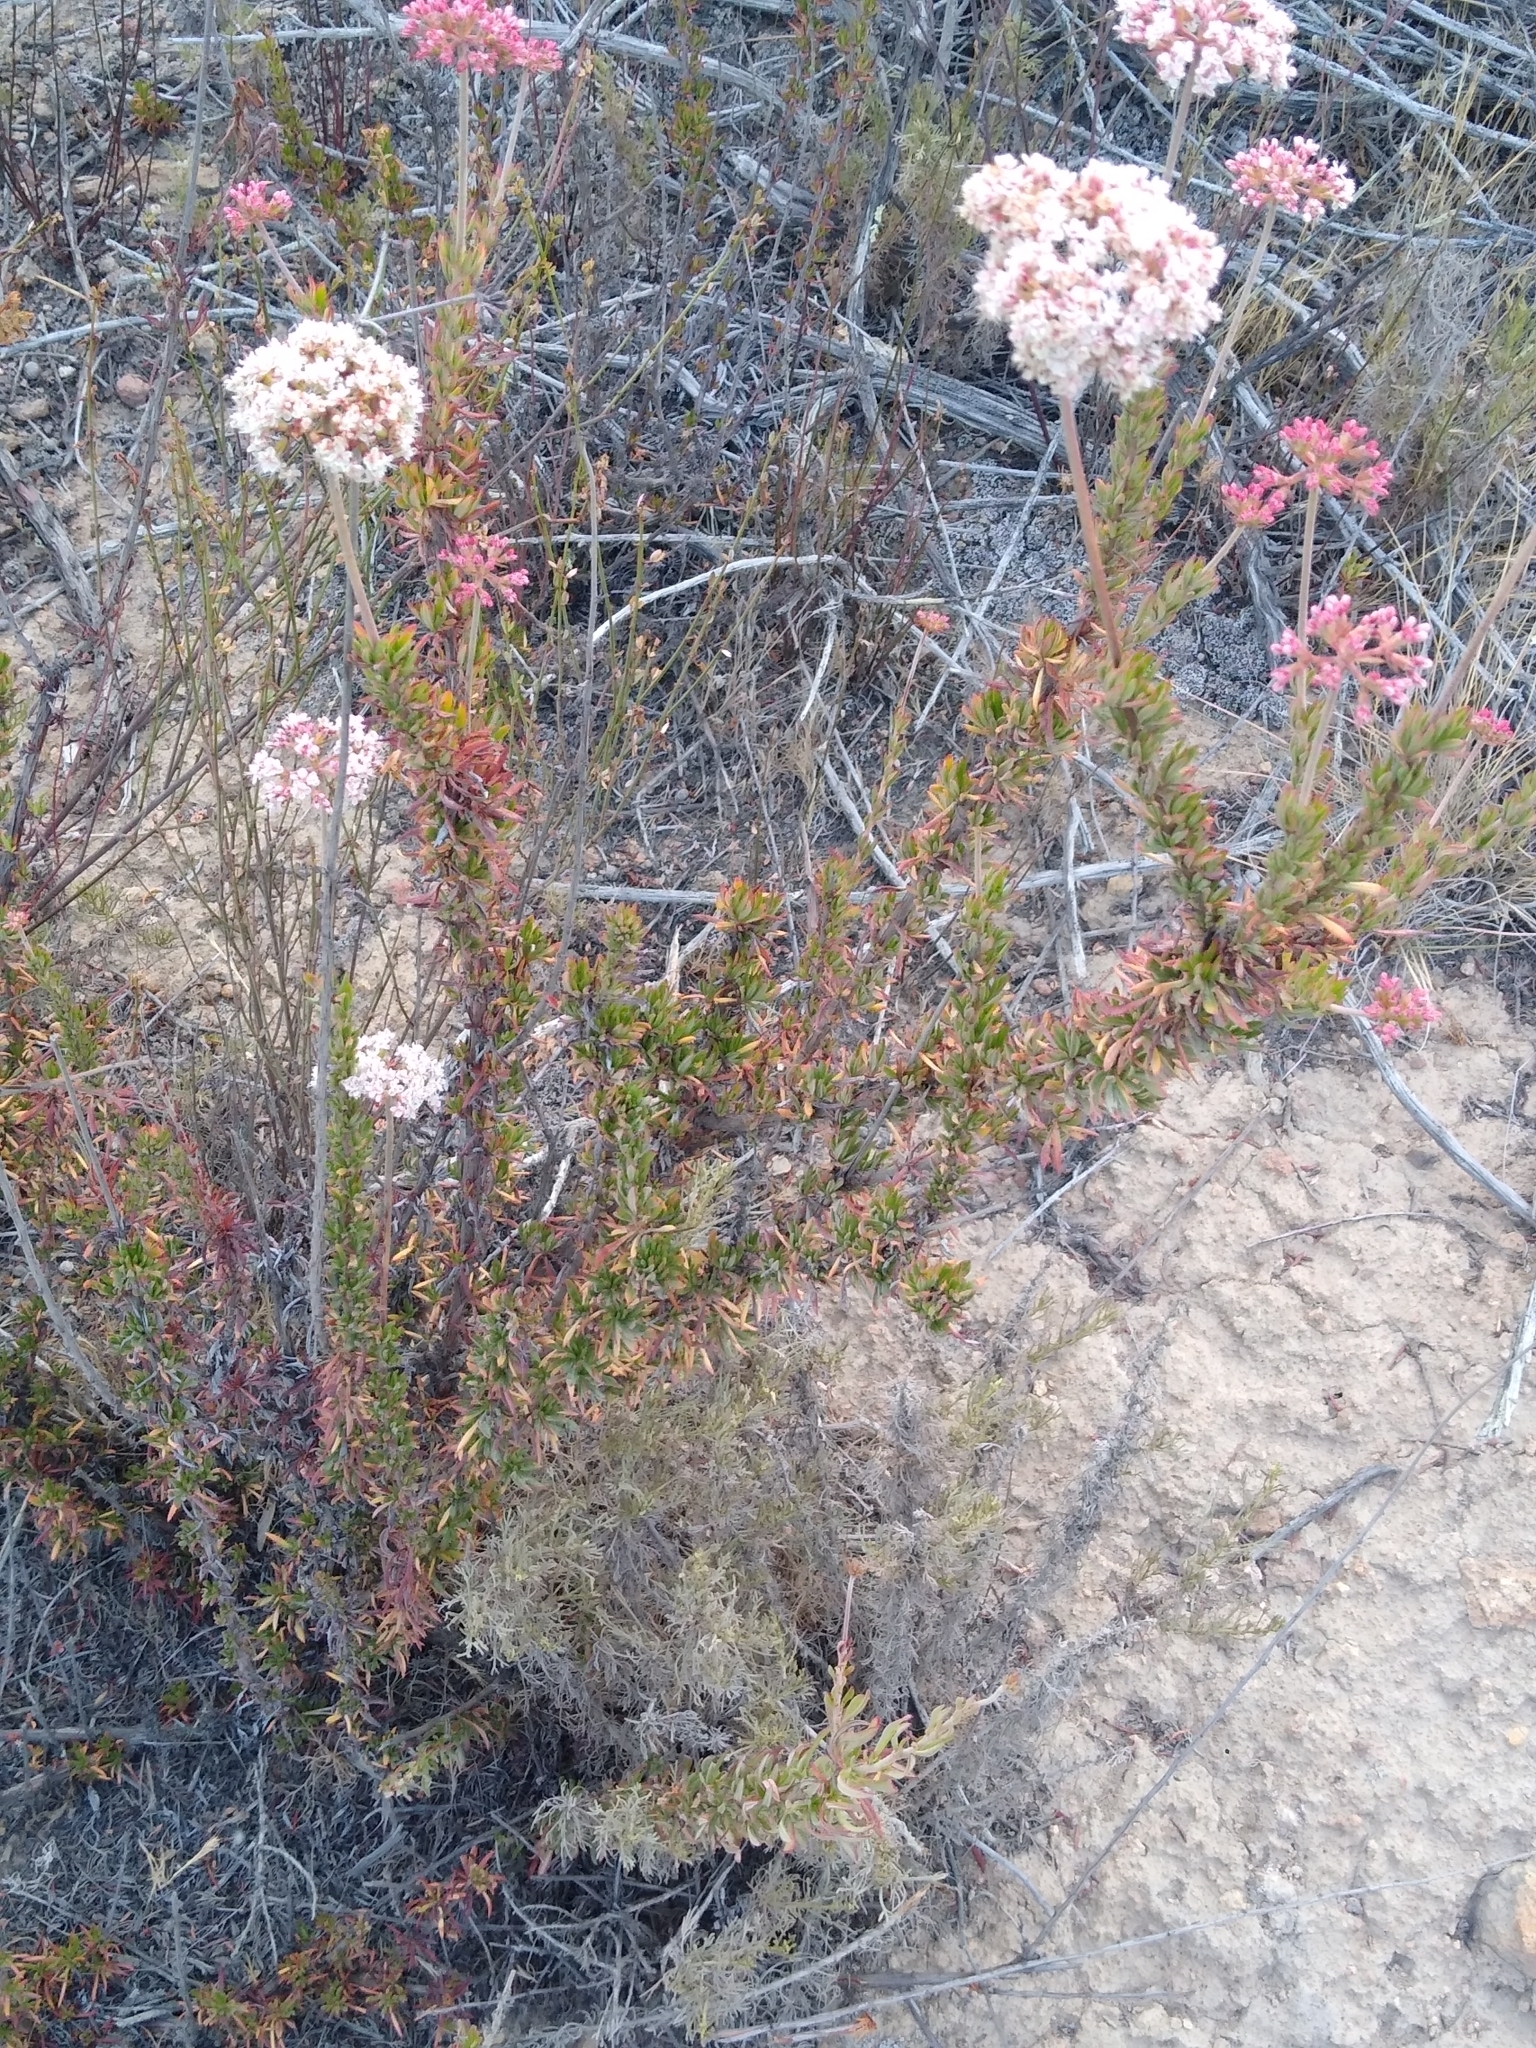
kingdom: Plantae
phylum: Tracheophyta
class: Magnoliopsida
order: Caryophyllales
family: Polygonaceae
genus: Eriogonum
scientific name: Eriogonum fasciculatum
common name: California wild buckwheat
